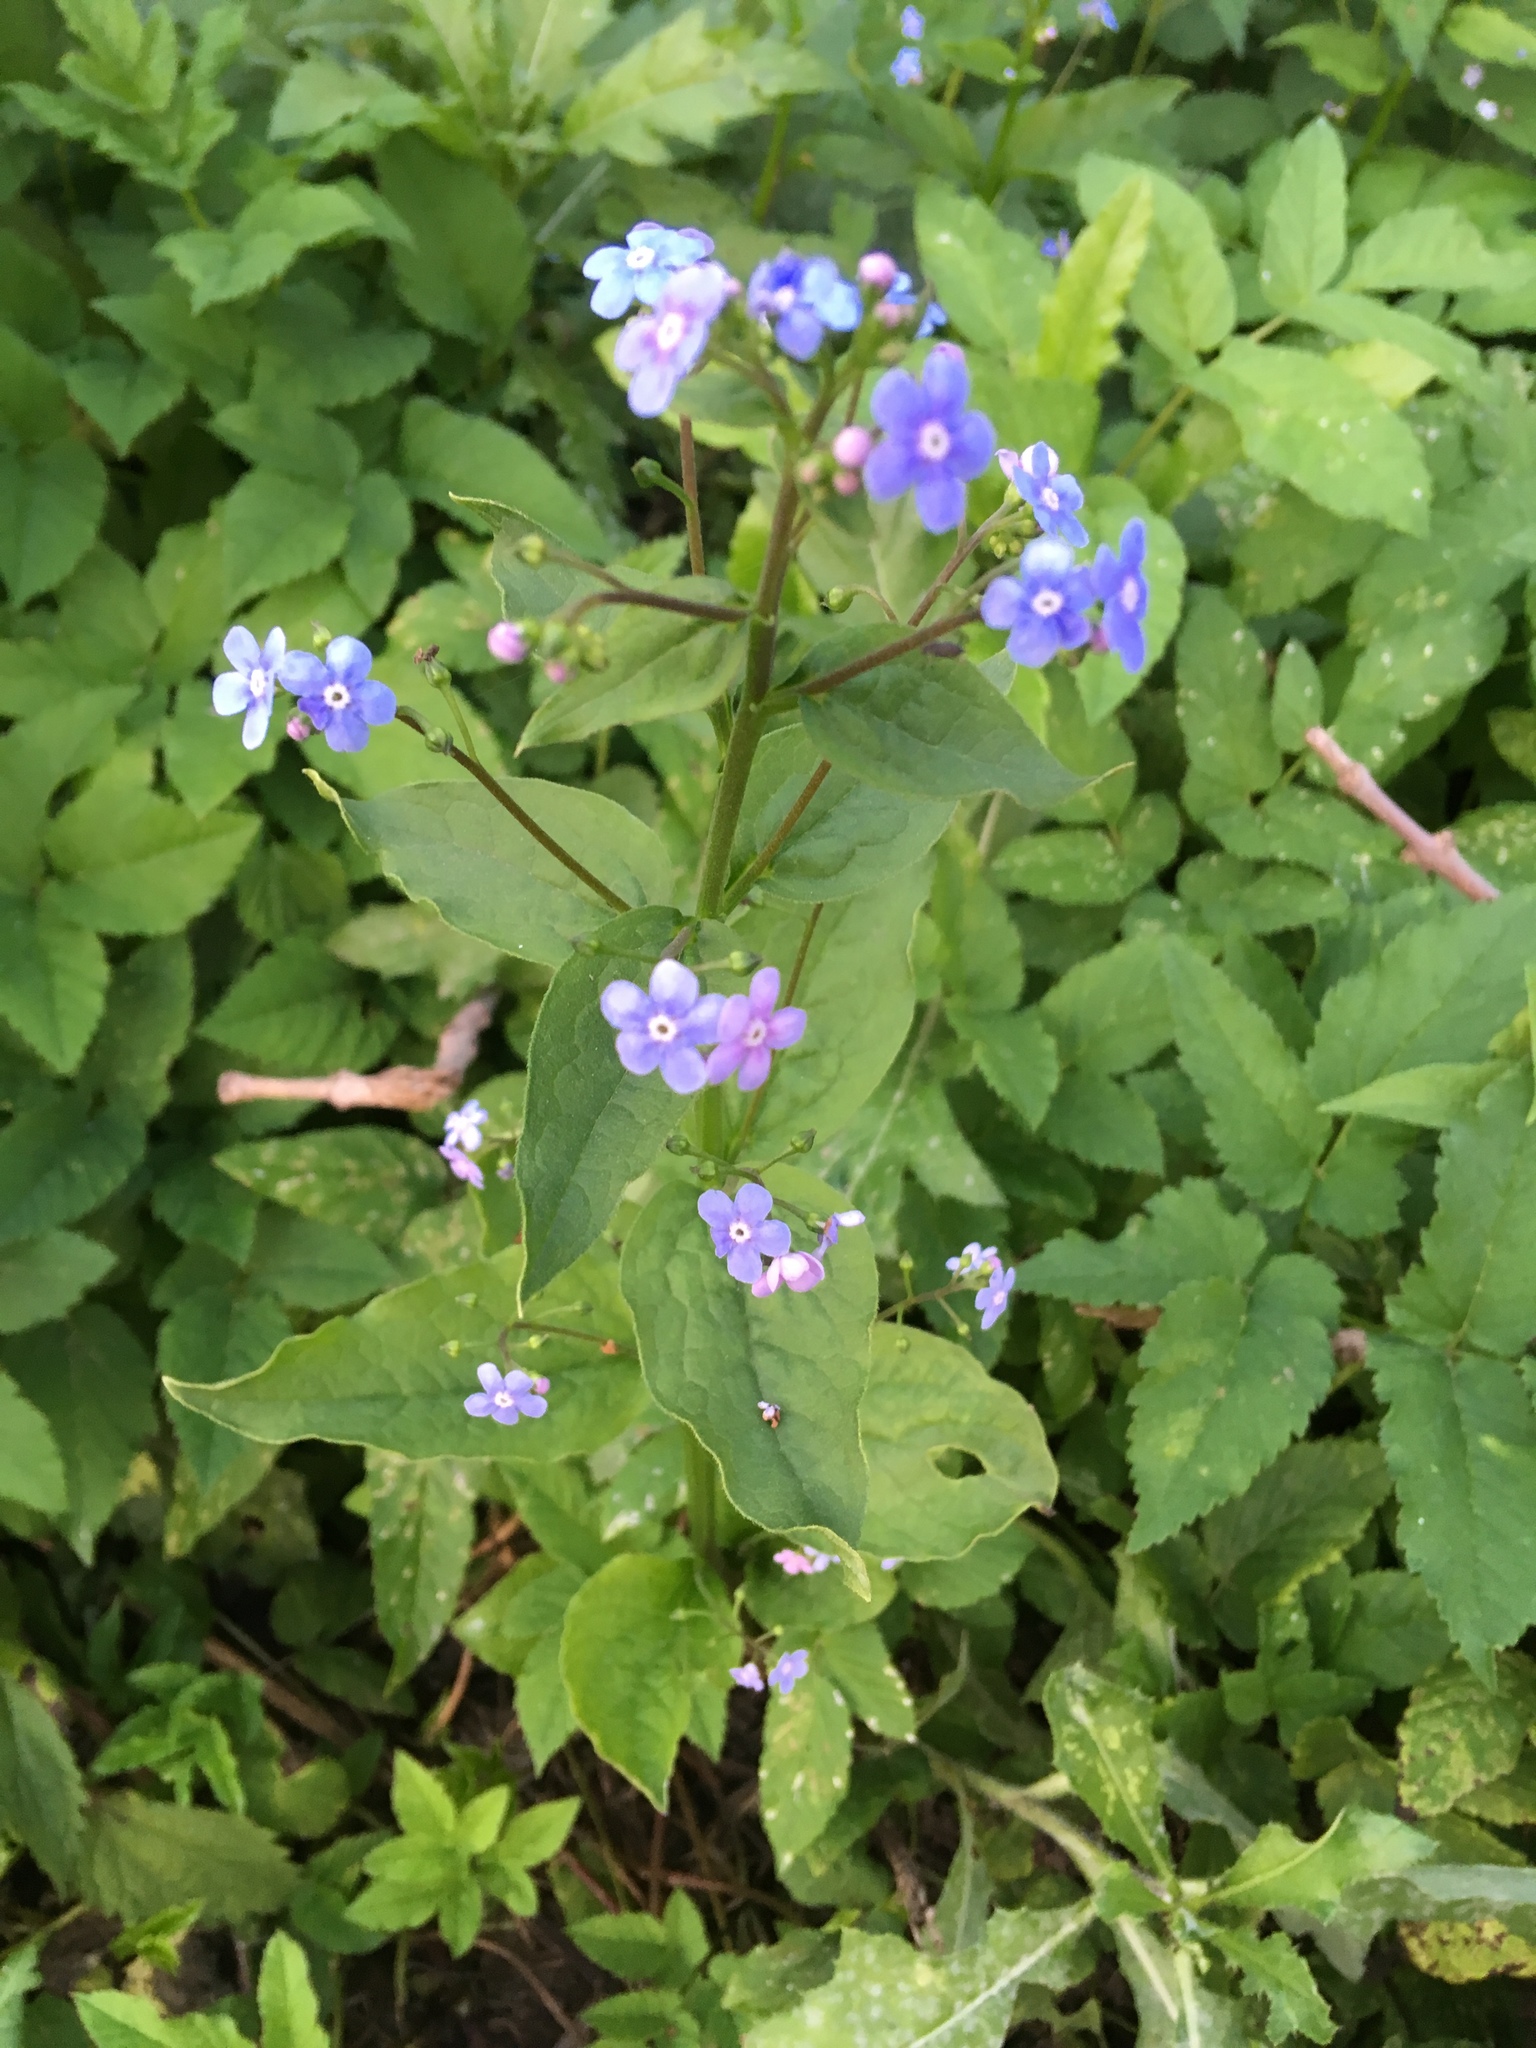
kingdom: Plantae
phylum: Tracheophyta
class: Magnoliopsida
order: Boraginales
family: Boraginaceae
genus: Brunnera
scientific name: Brunnera sibirica
